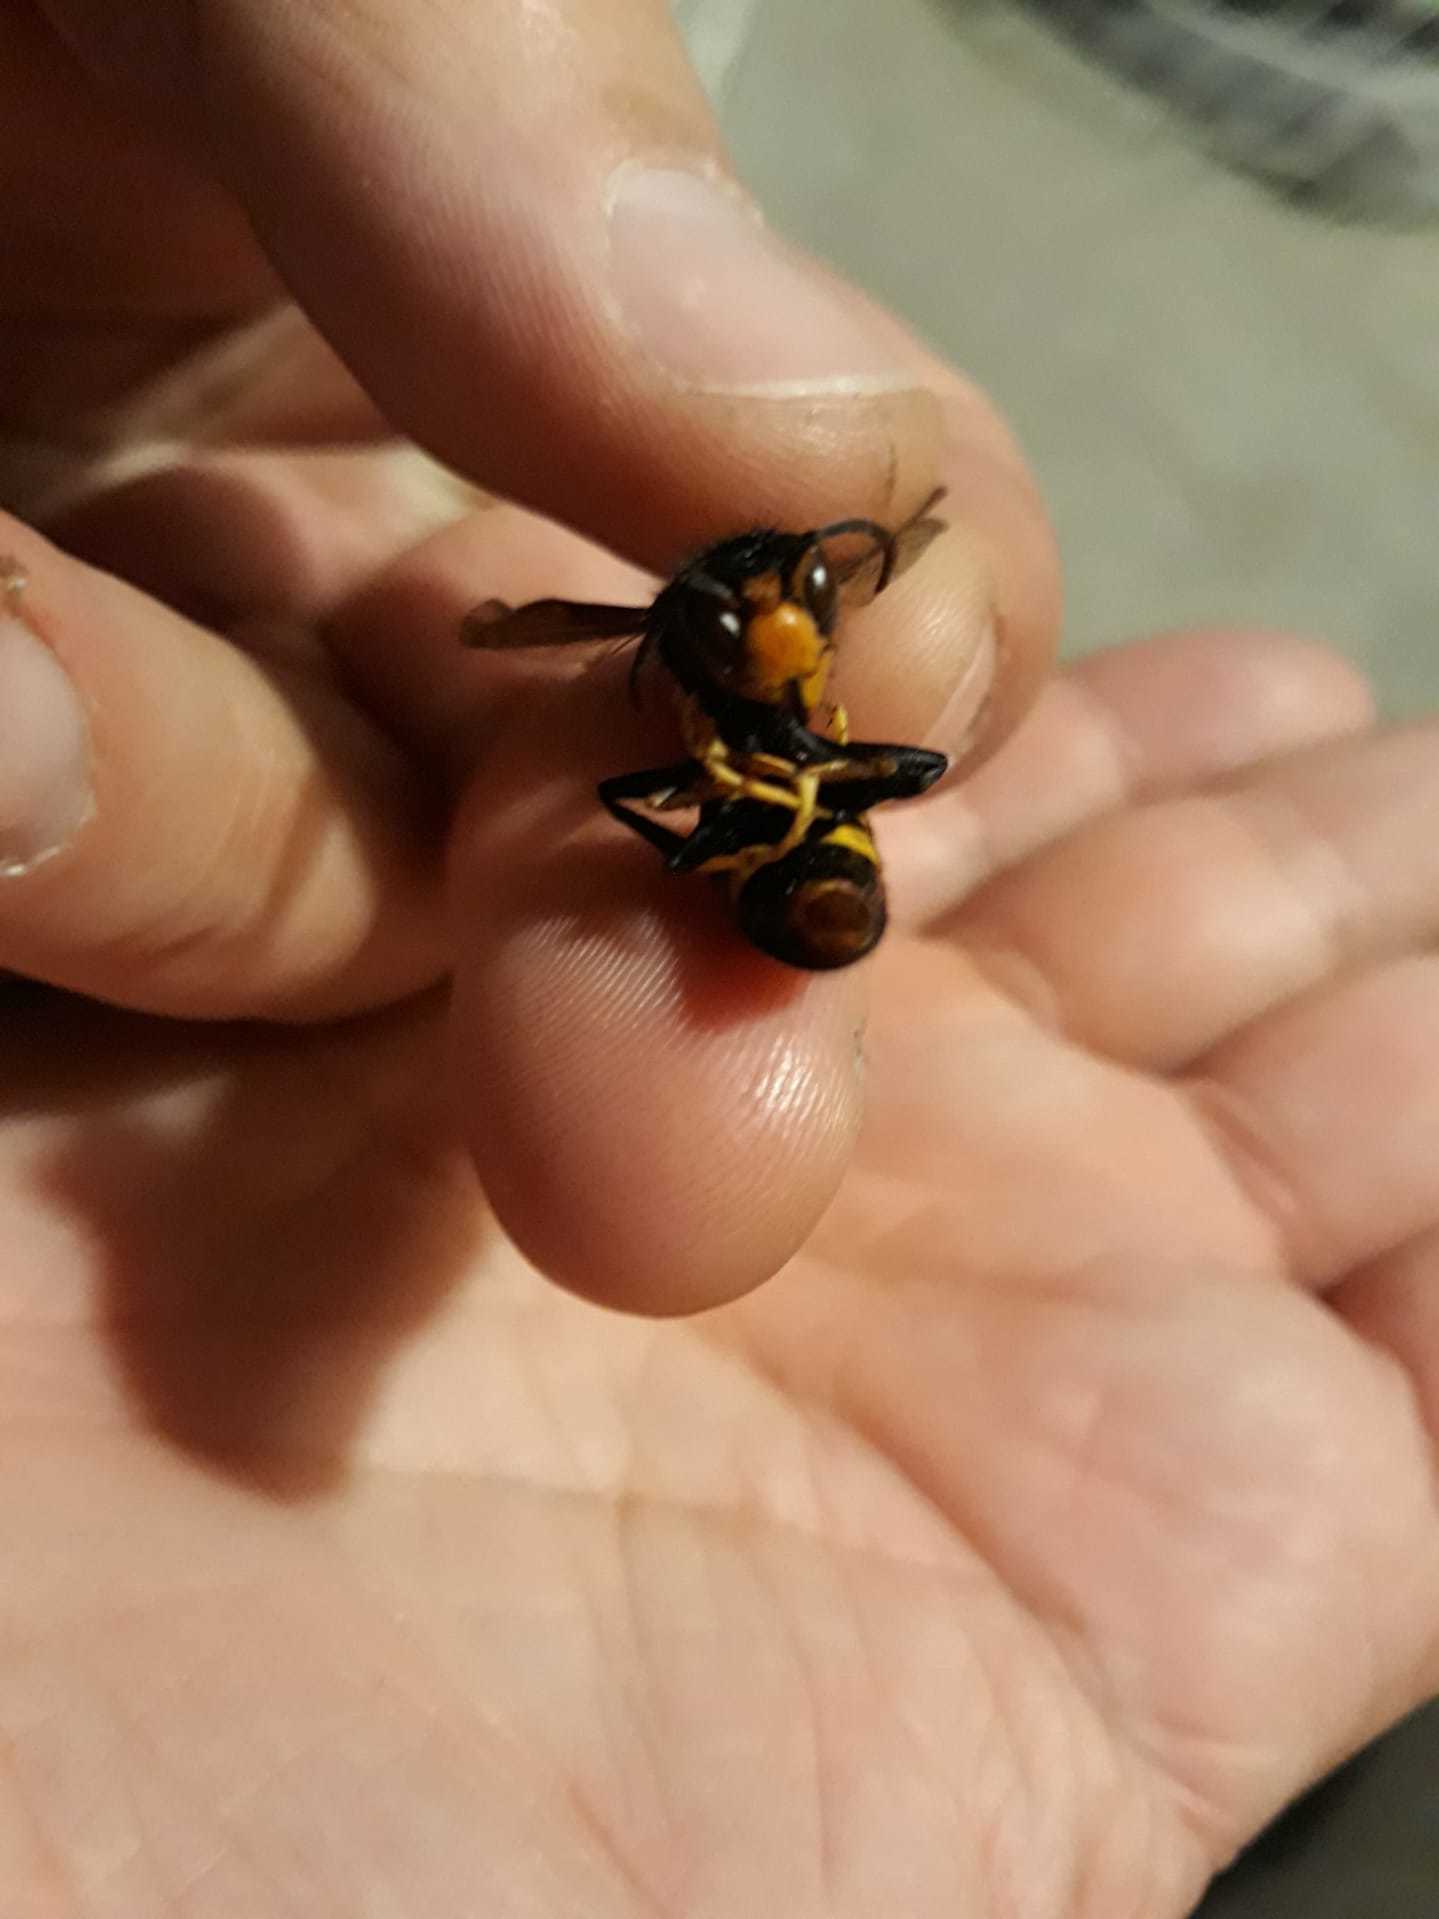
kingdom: Animalia
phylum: Arthropoda
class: Insecta
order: Hymenoptera
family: Vespidae
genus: Vespa
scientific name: Vespa velutina
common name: Asian hornet
